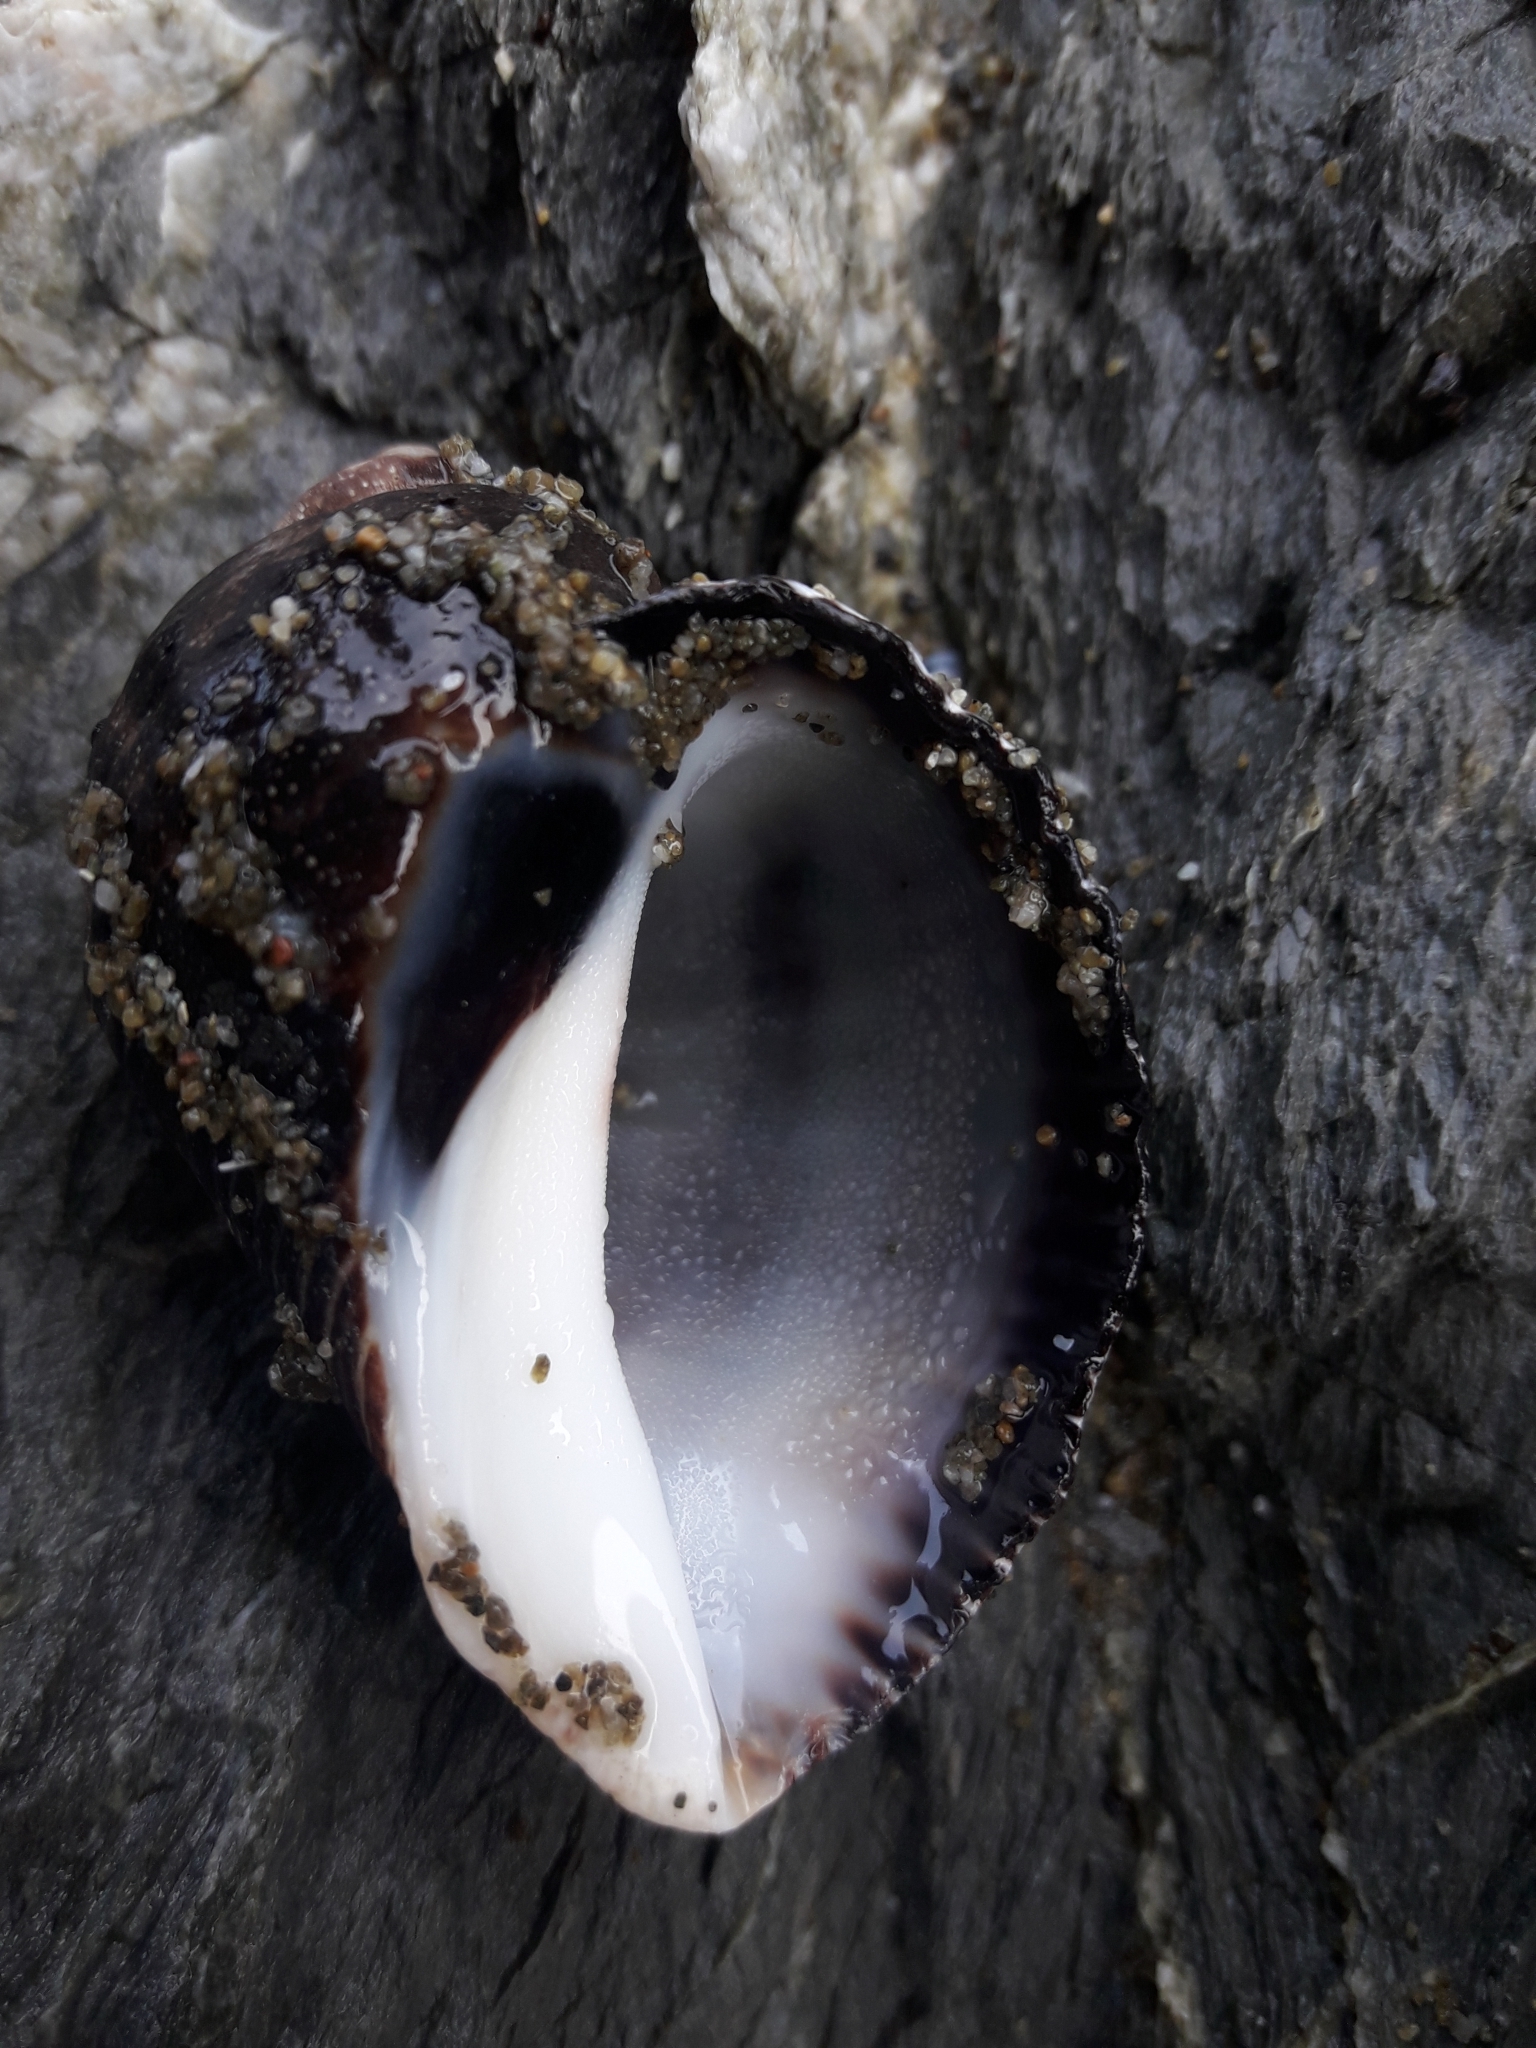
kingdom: Animalia
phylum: Mollusca
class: Gastropoda
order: Neogastropoda
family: Muricidae
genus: Haustrum
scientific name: Haustrum haustorium
